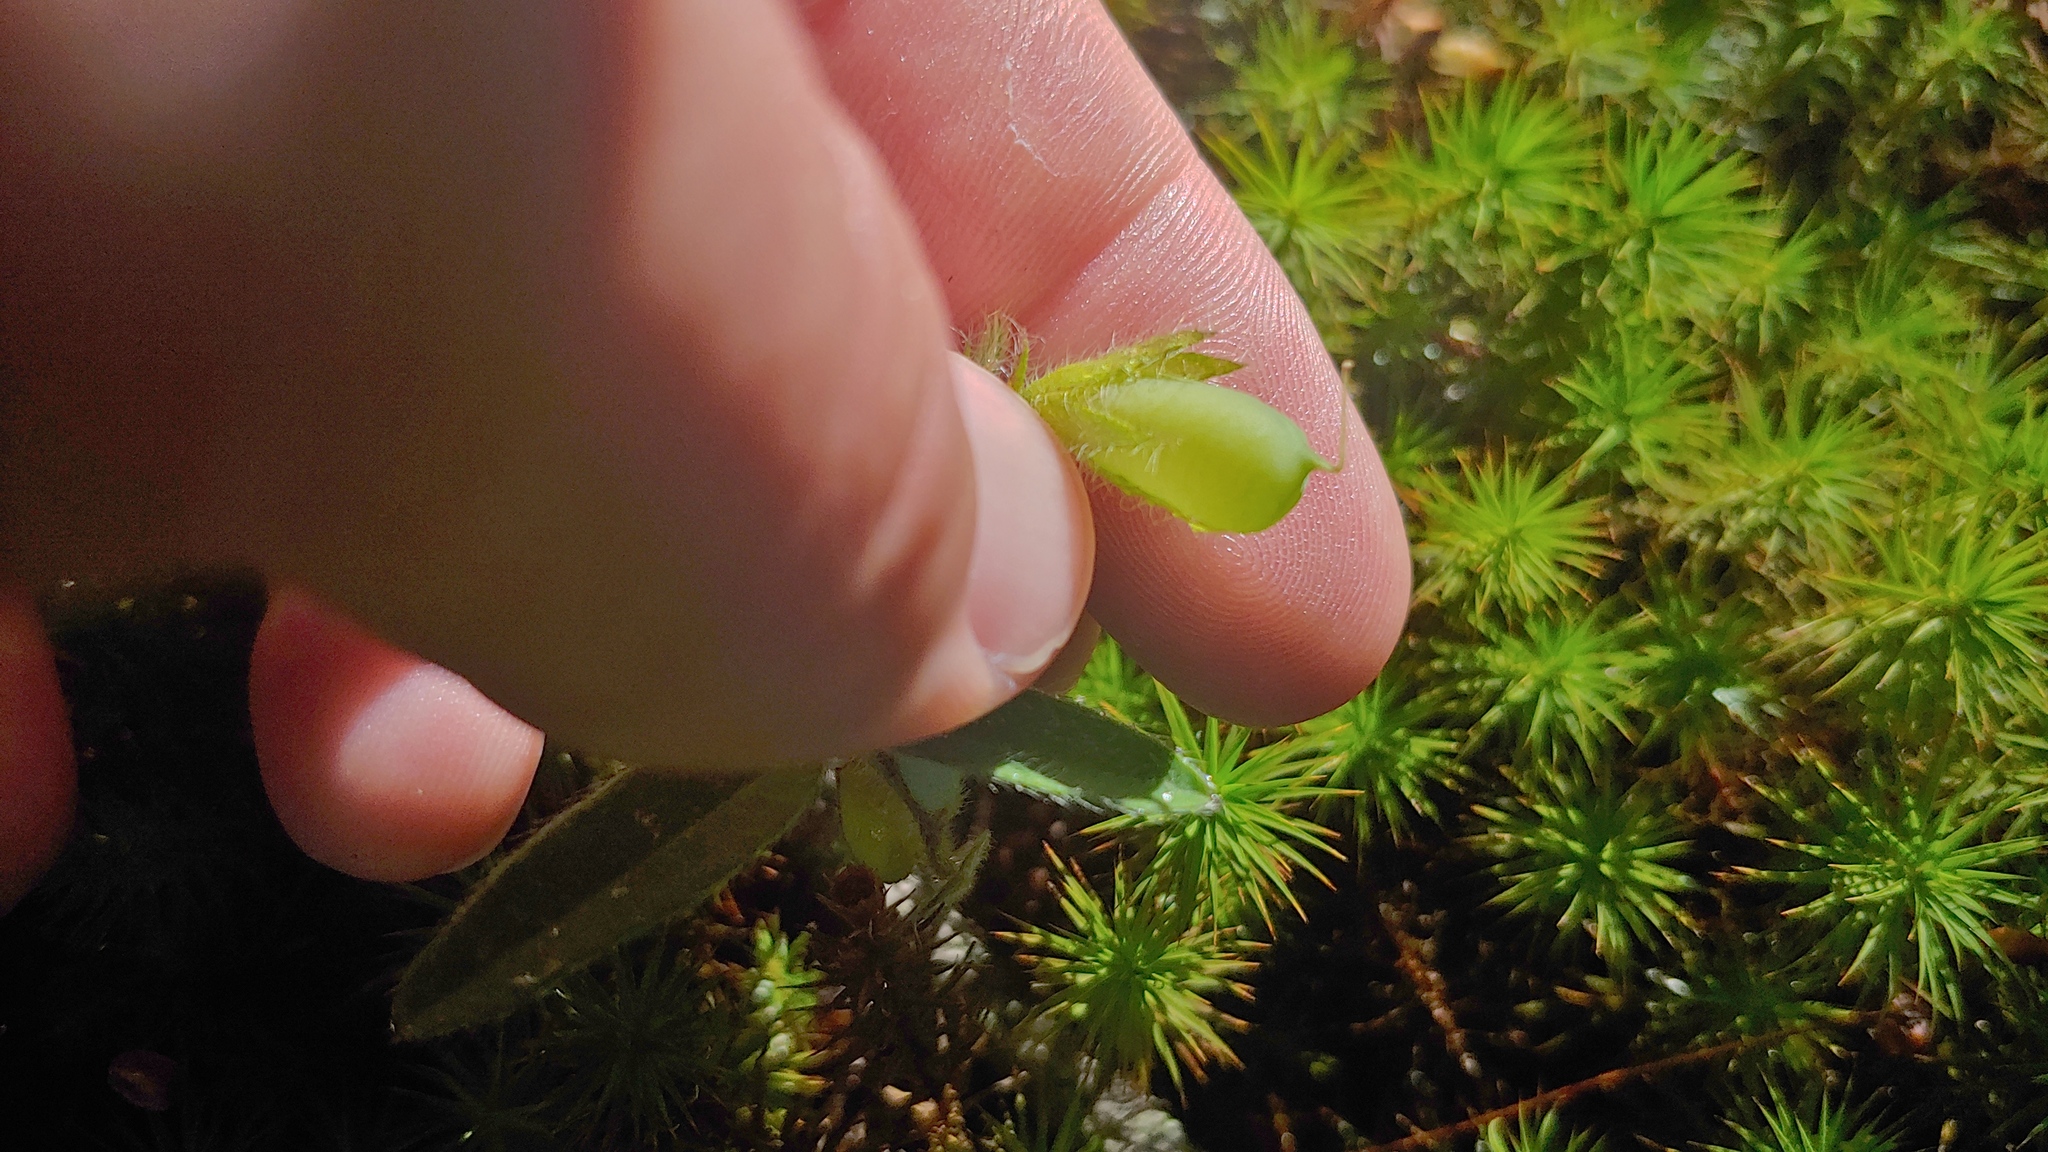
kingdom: Plantae
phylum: Tracheophyta
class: Magnoliopsida
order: Fabales
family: Fabaceae
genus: Crotalaria
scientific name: Crotalaria sagittalis
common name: Arrowhead rattlebox
